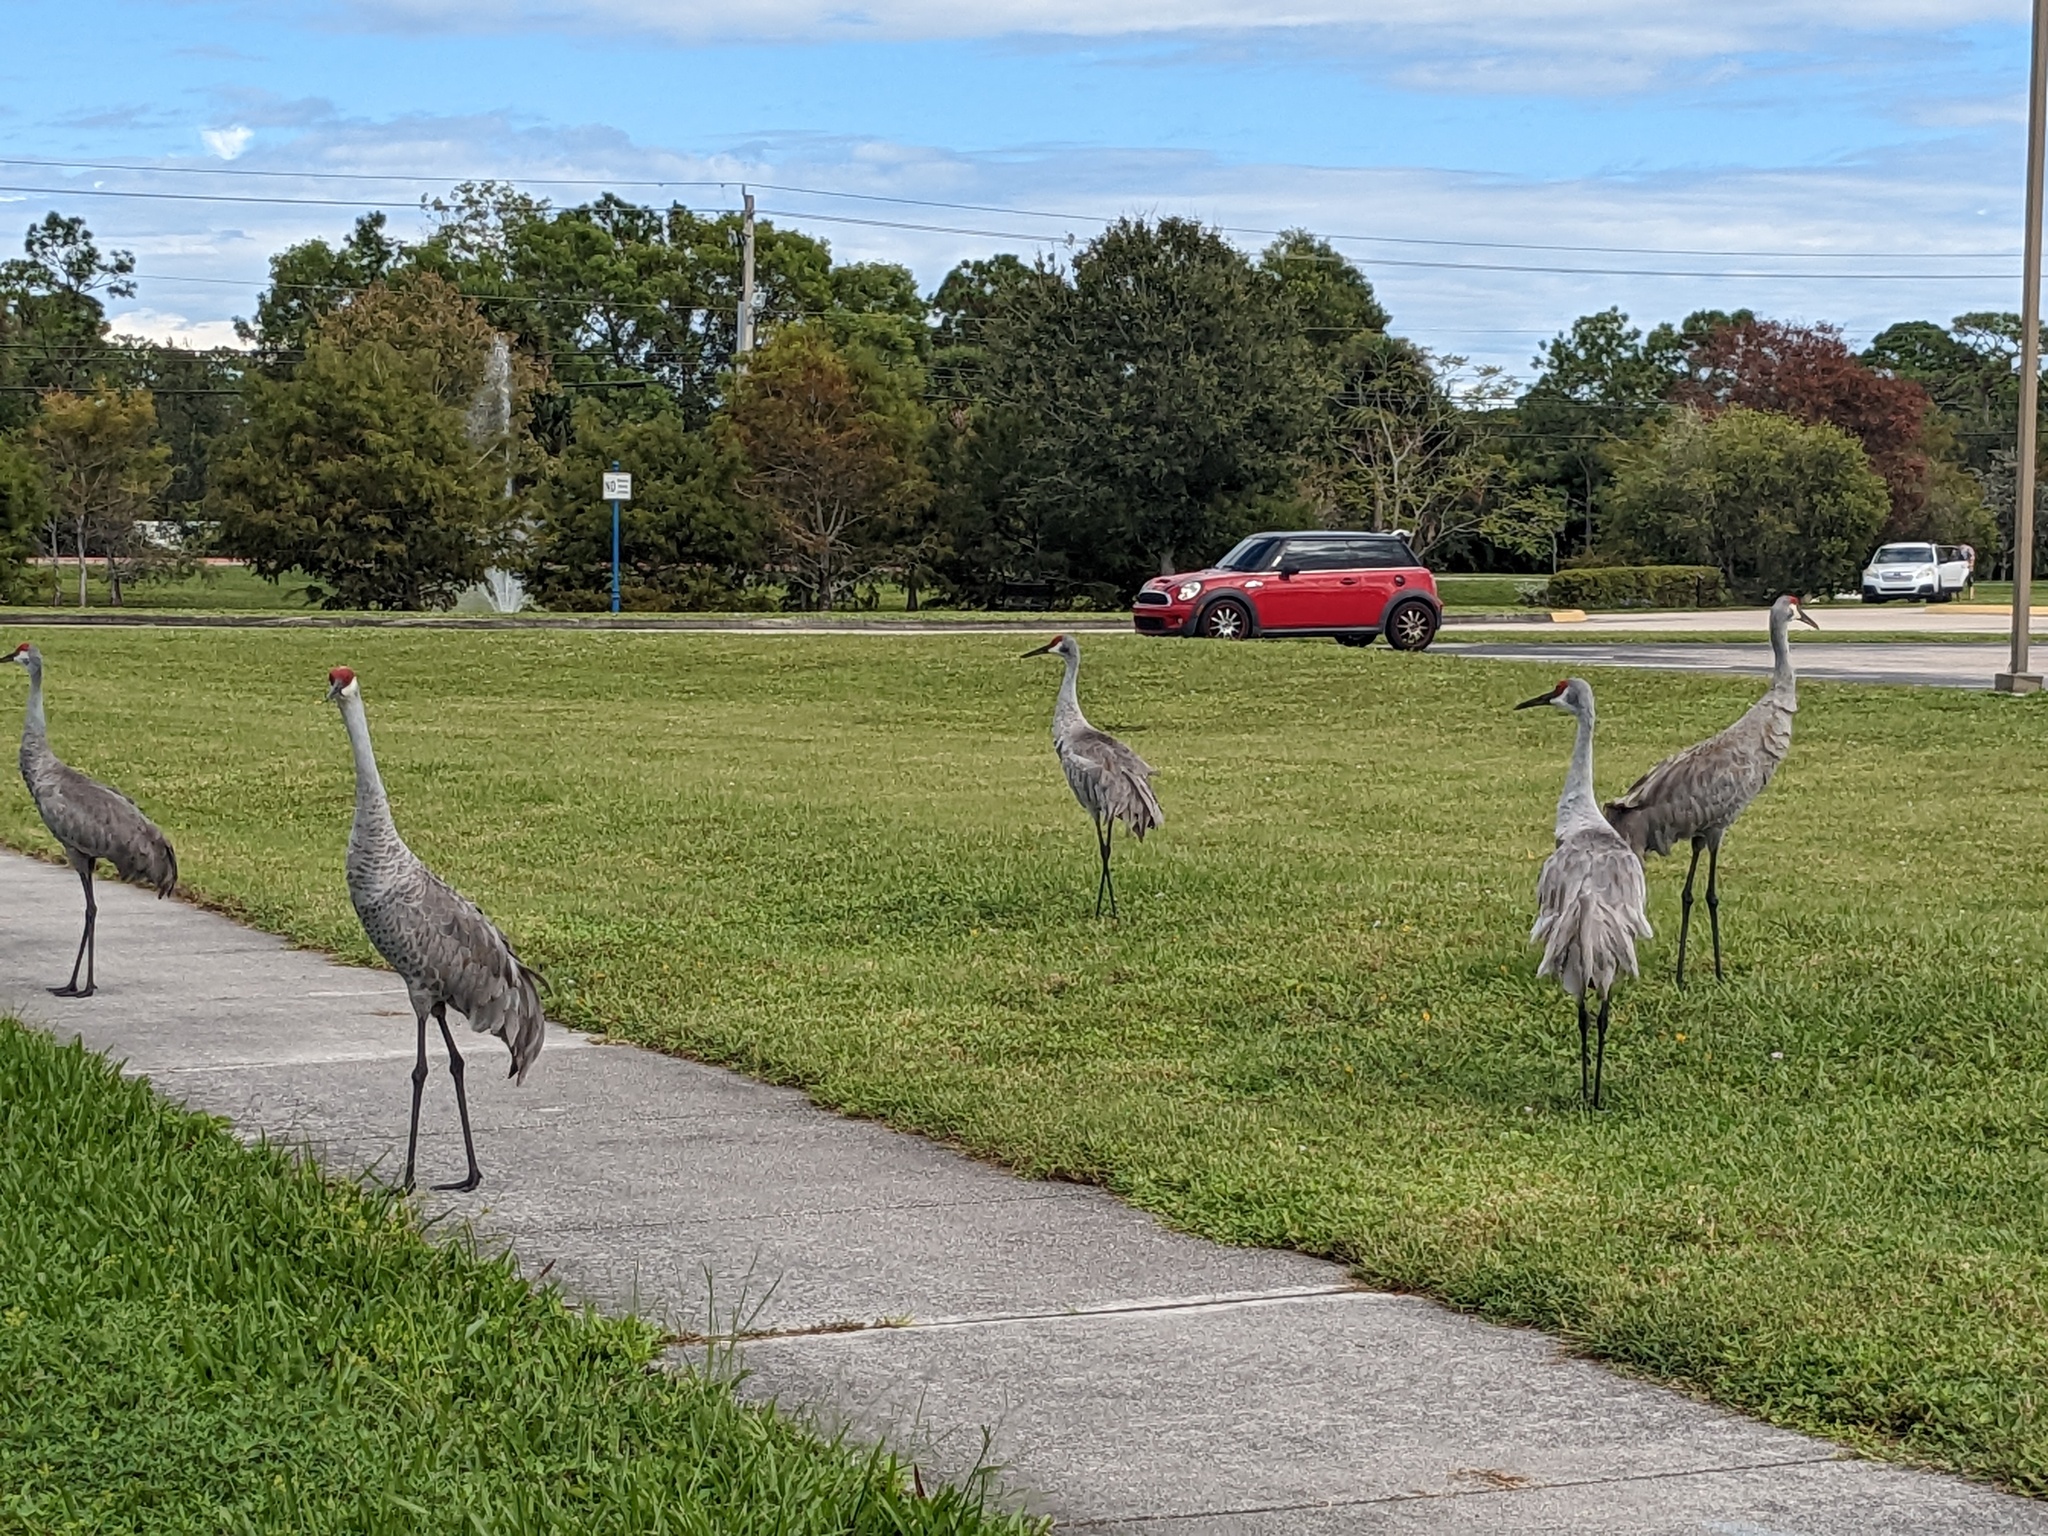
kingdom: Animalia
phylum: Chordata
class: Aves
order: Gruiformes
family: Gruidae
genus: Grus
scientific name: Grus canadensis
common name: Sandhill crane
